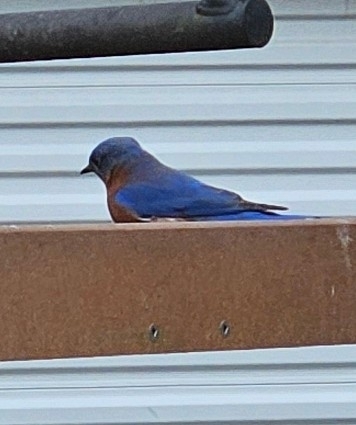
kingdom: Animalia
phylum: Chordata
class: Aves
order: Passeriformes
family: Turdidae
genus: Sialia
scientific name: Sialia sialis
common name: Eastern bluebird
